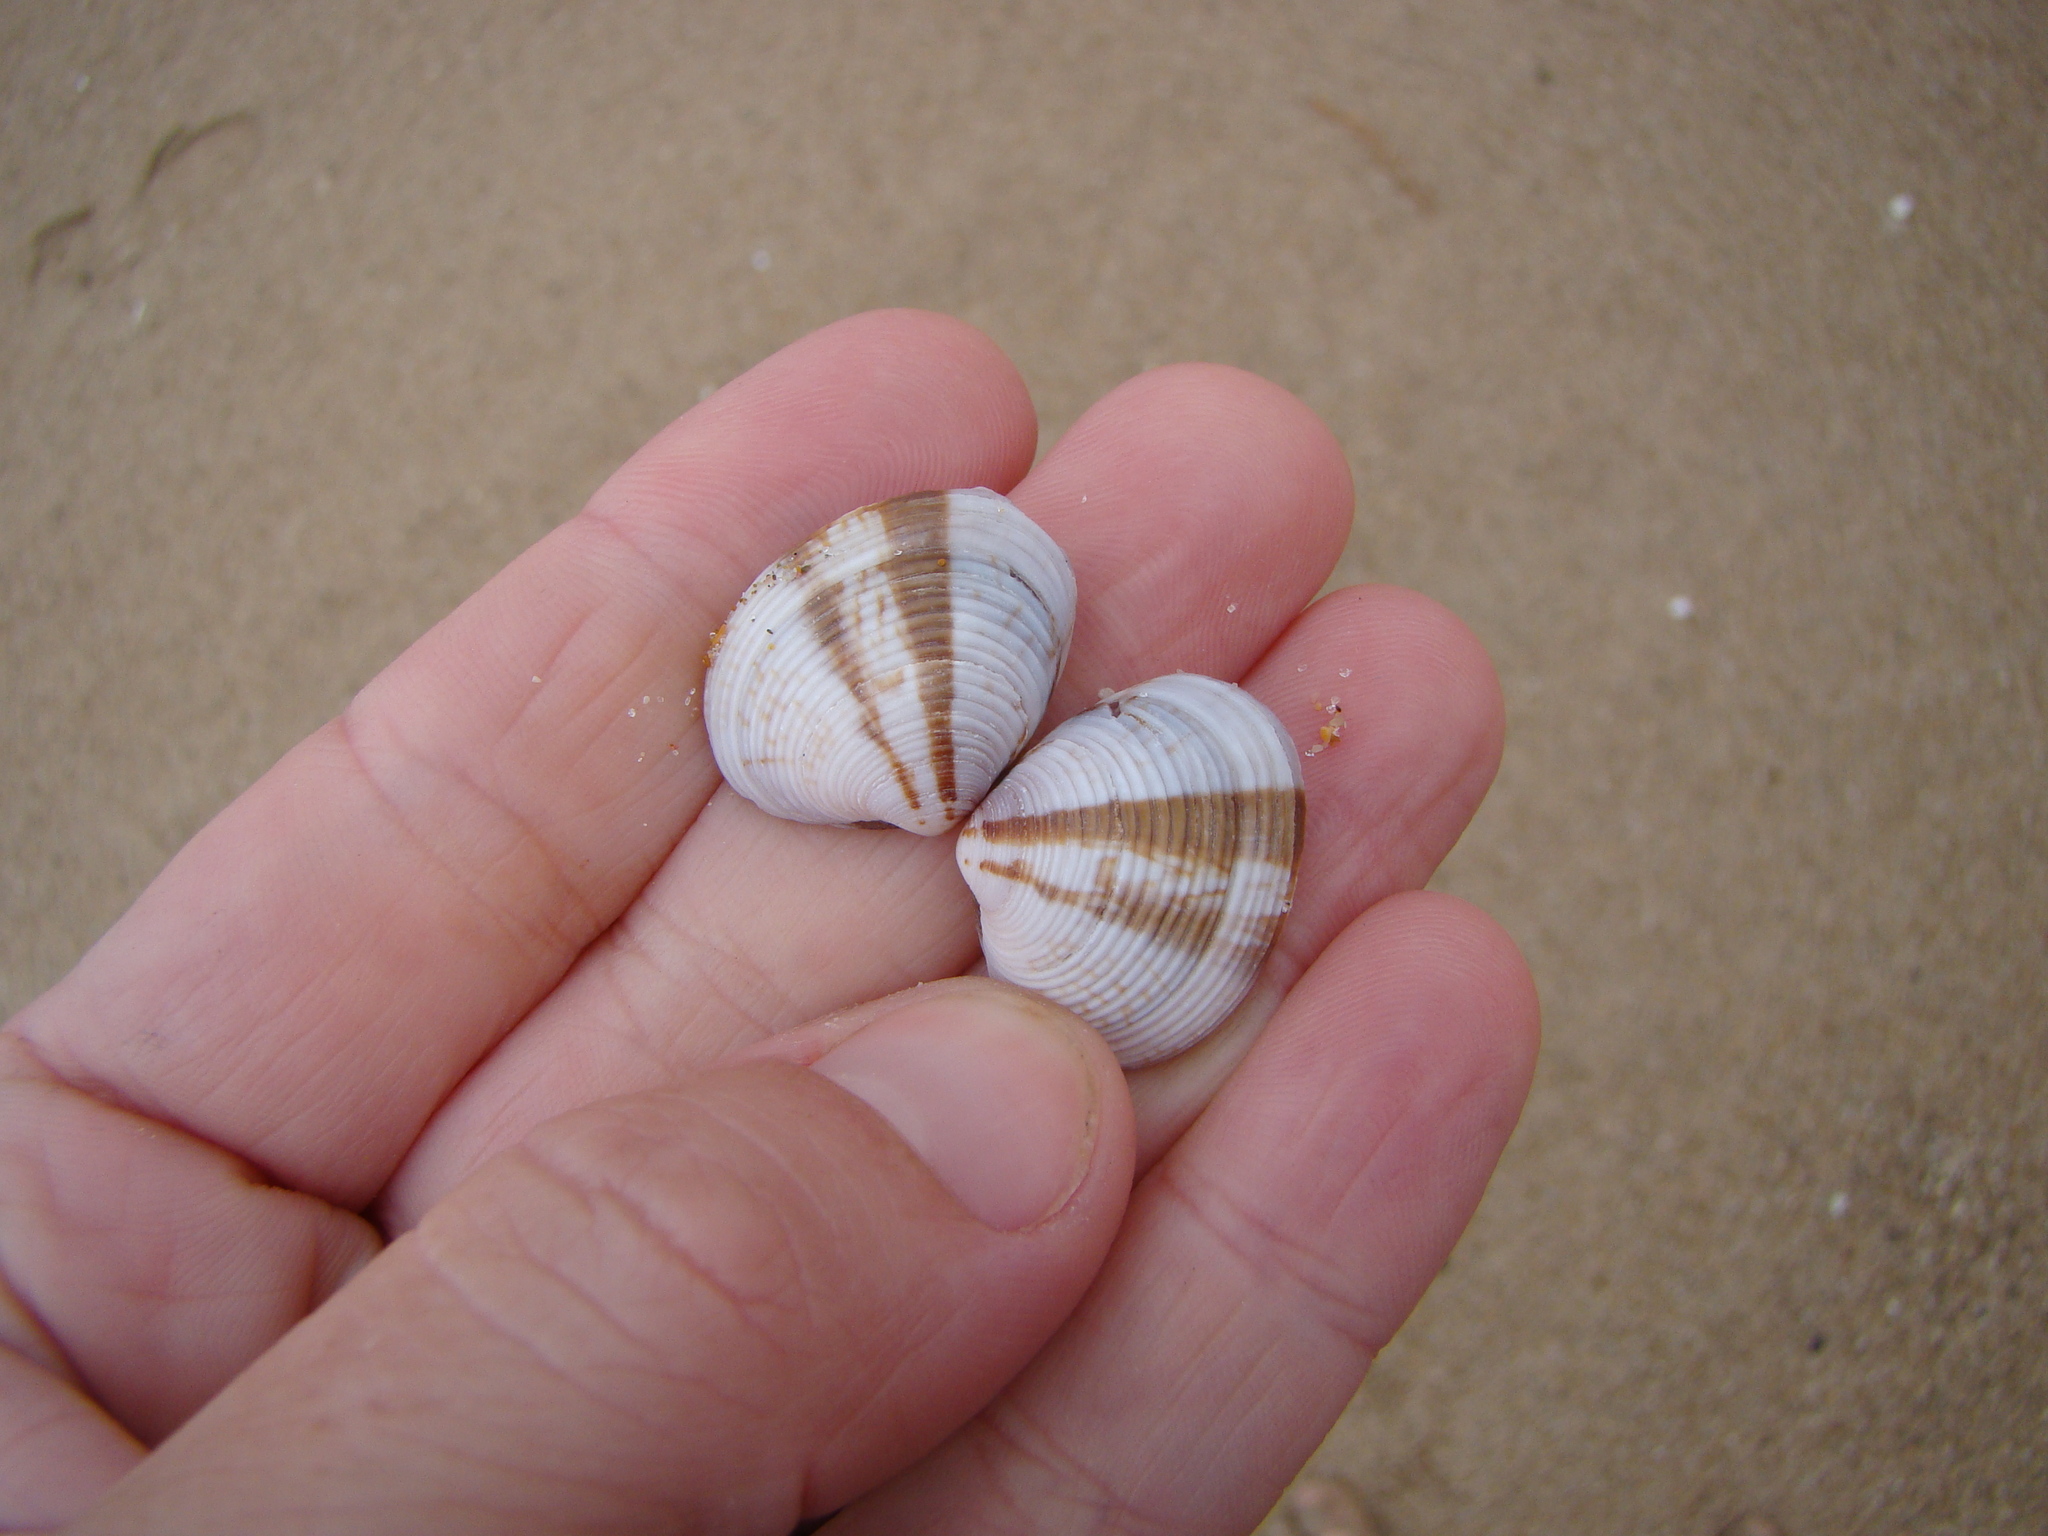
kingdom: Animalia
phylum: Mollusca
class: Bivalvia
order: Venerida
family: Veneridae
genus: Tawera
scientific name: Tawera spissa
